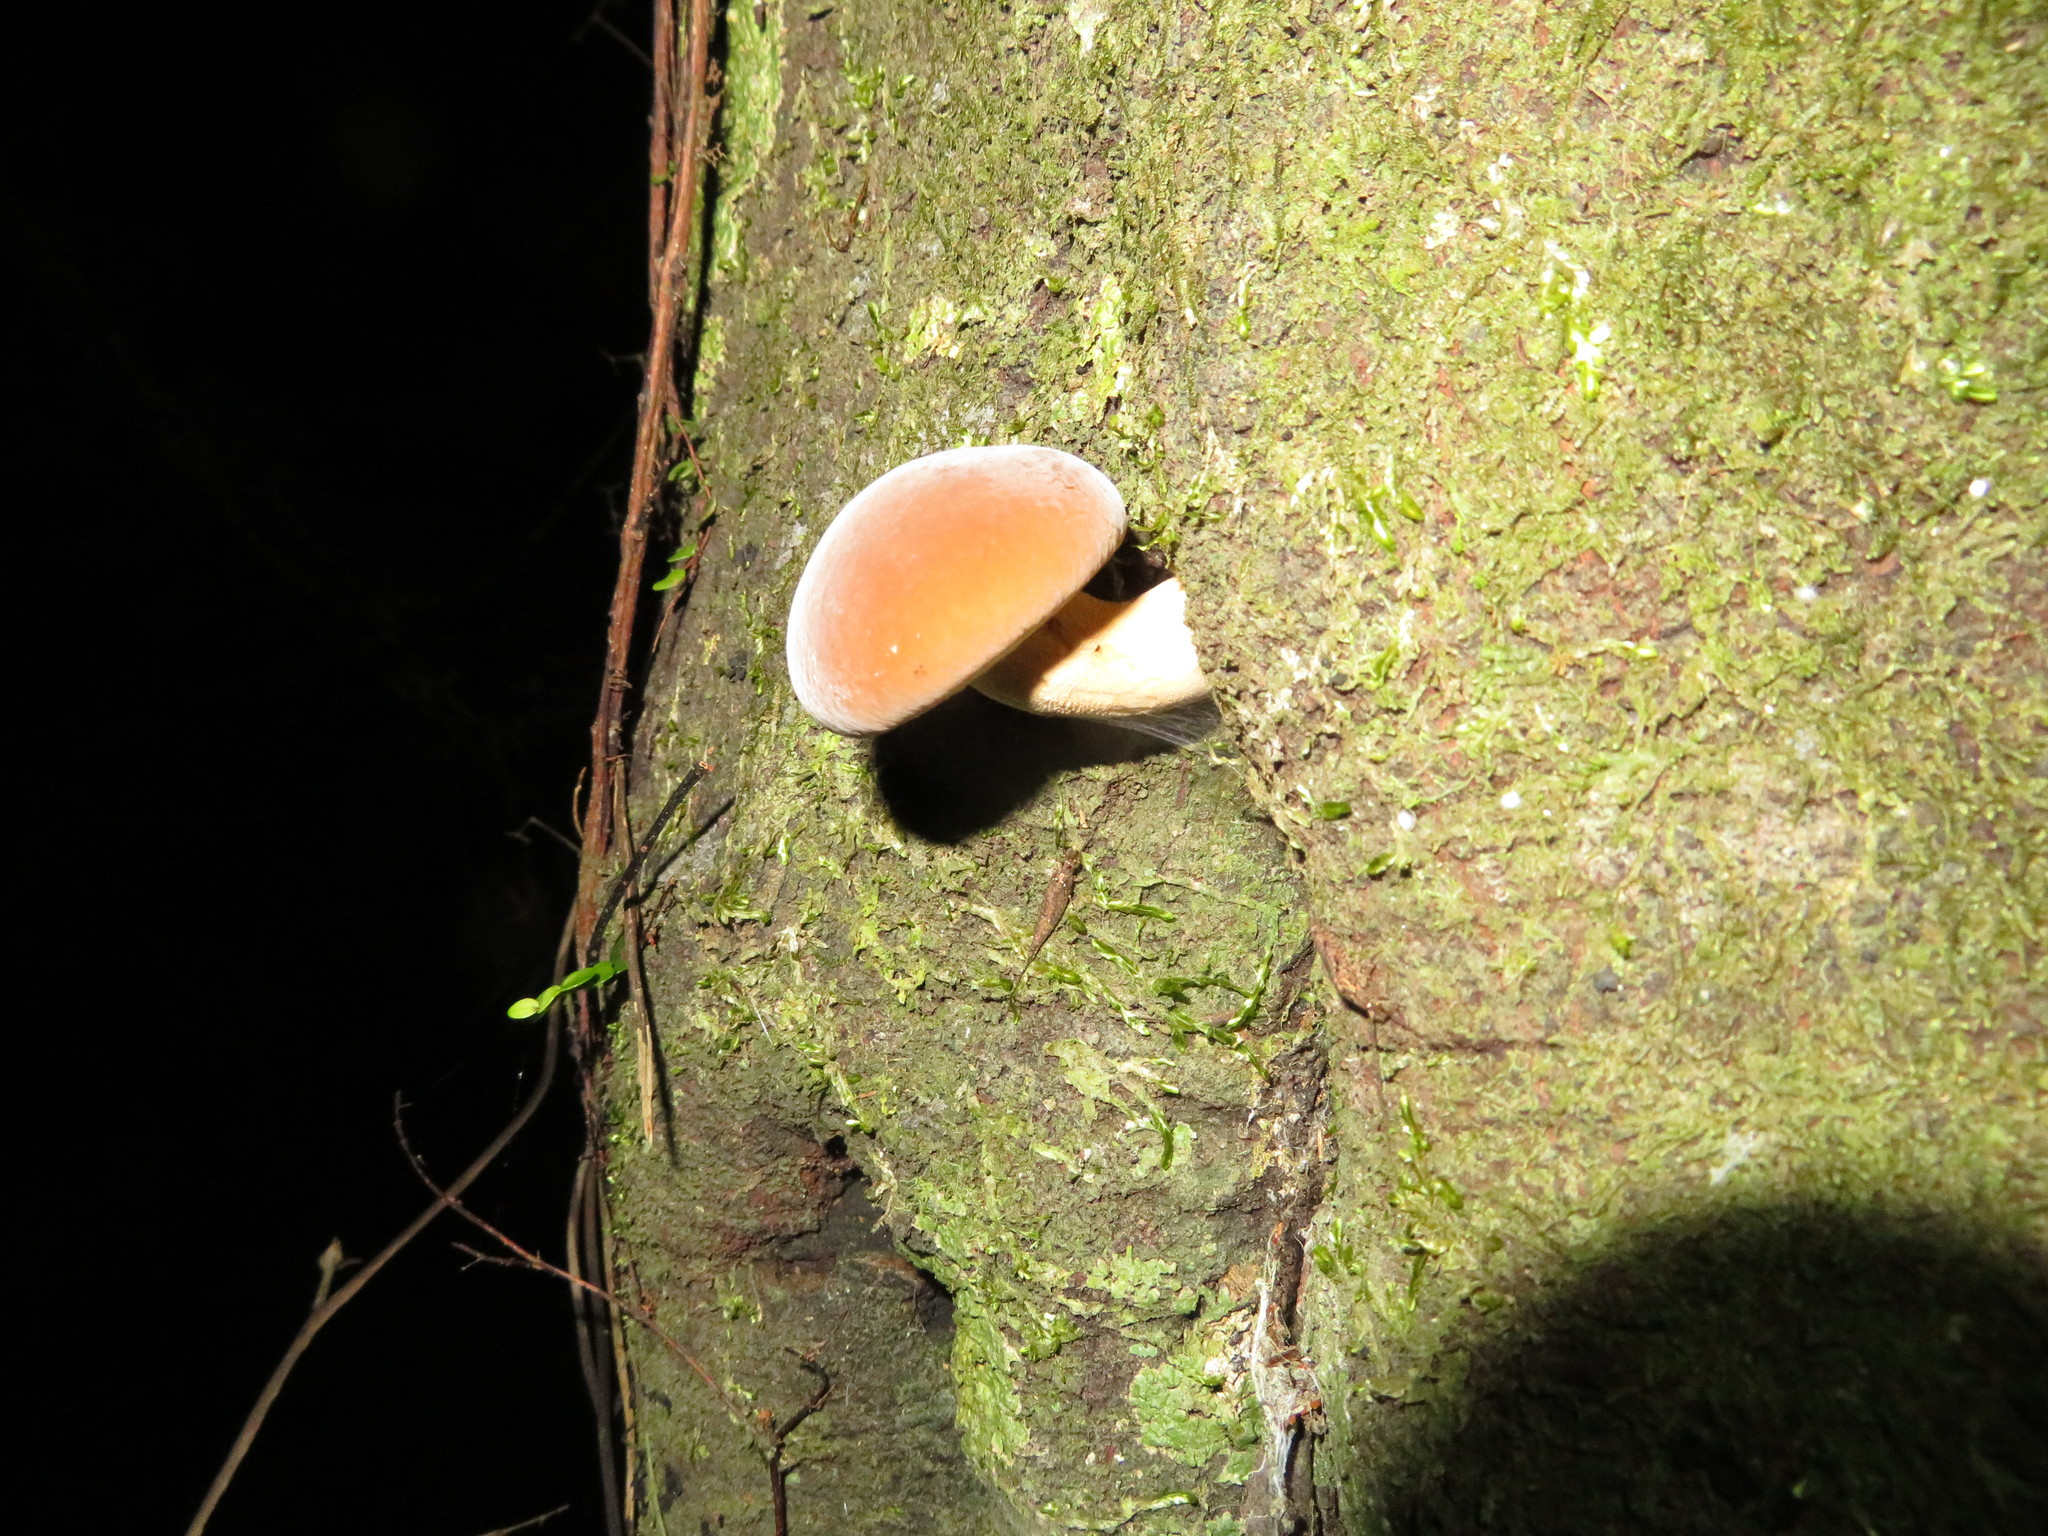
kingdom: Fungi
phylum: Basidiomycota
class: Agaricomycetes
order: Agaricales
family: Tubariaceae
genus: Cyclocybe
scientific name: Cyclocybe parasitica
